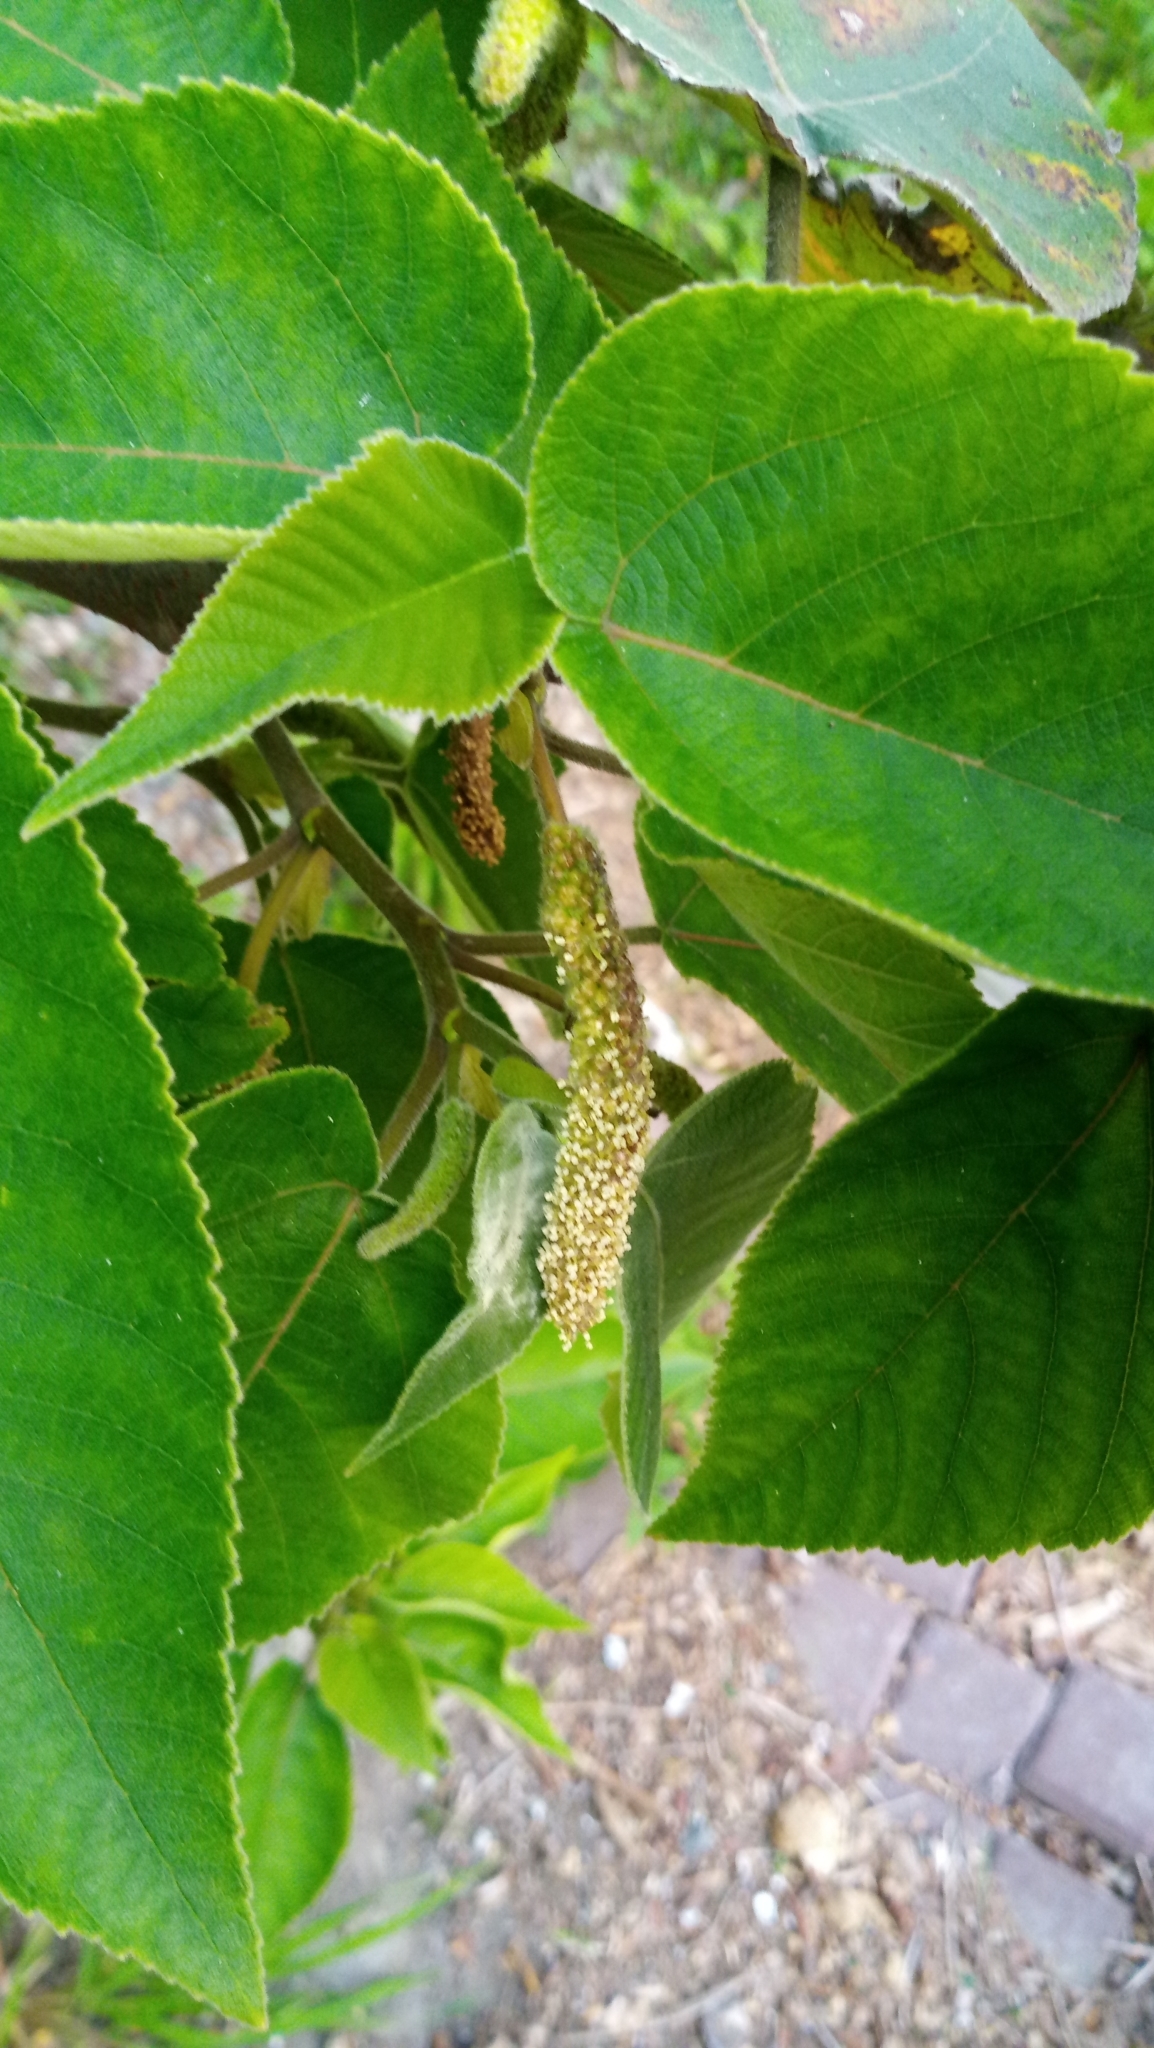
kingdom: Plantae
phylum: Tracheophyta
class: Magnoliopsida
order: Rosales
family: Moraceae
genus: Broussonetia
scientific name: Broussonetia papyrifera
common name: Paper mulberry
